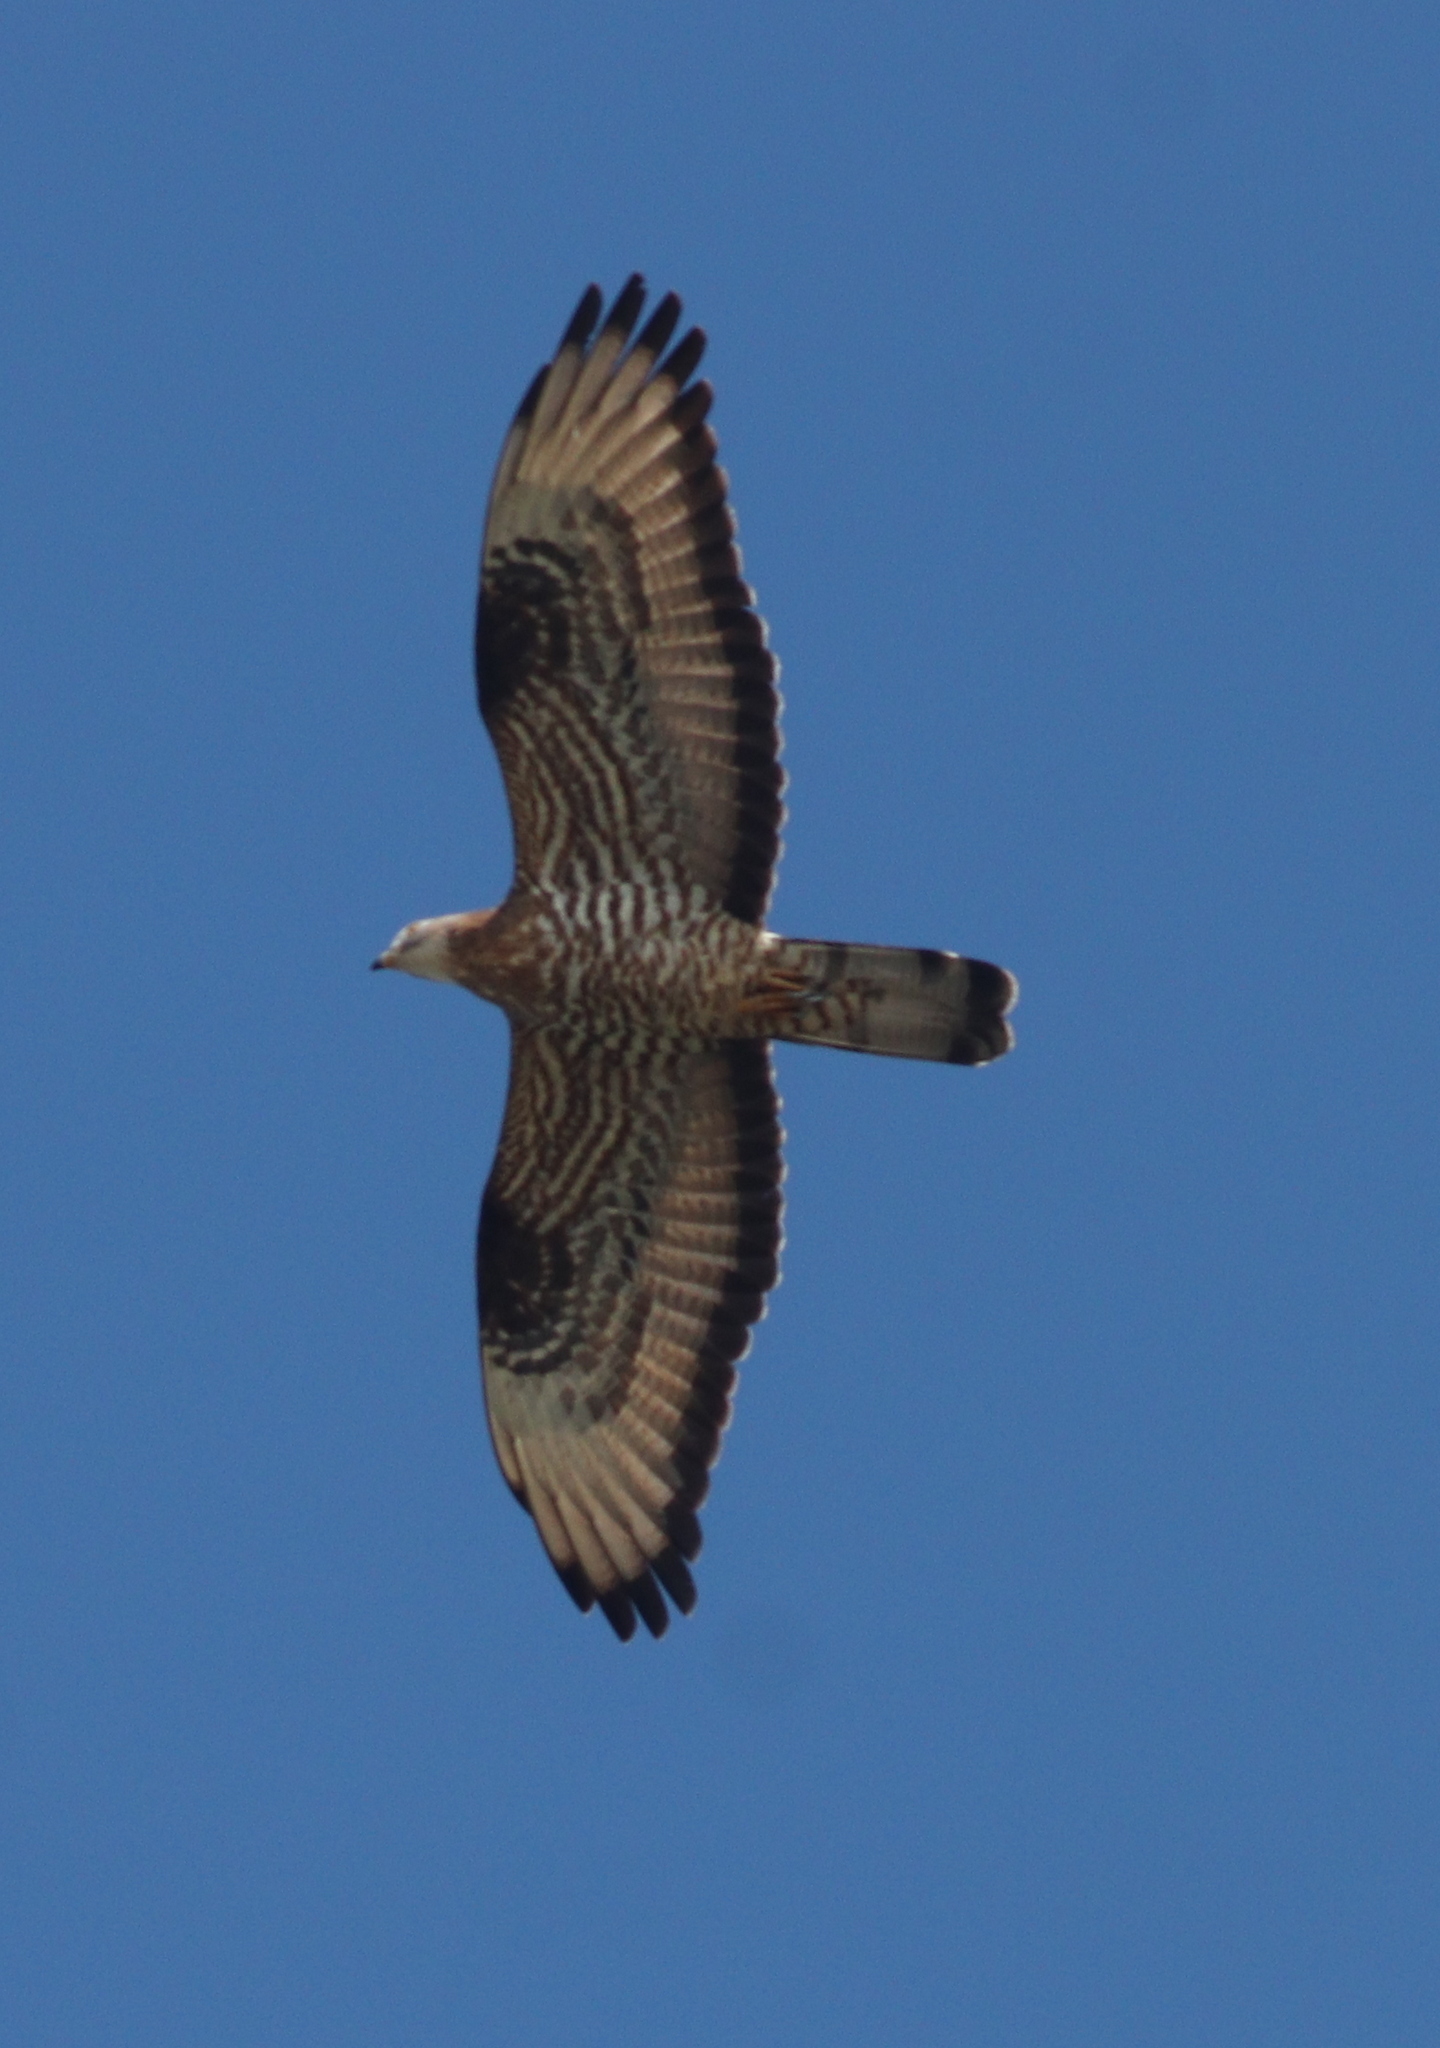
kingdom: Animalia
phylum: Chordata
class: Aves
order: Accipitriformes
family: Accipitridae
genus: Pernis
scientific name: Pernis apivorus
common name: European honey buzzard
